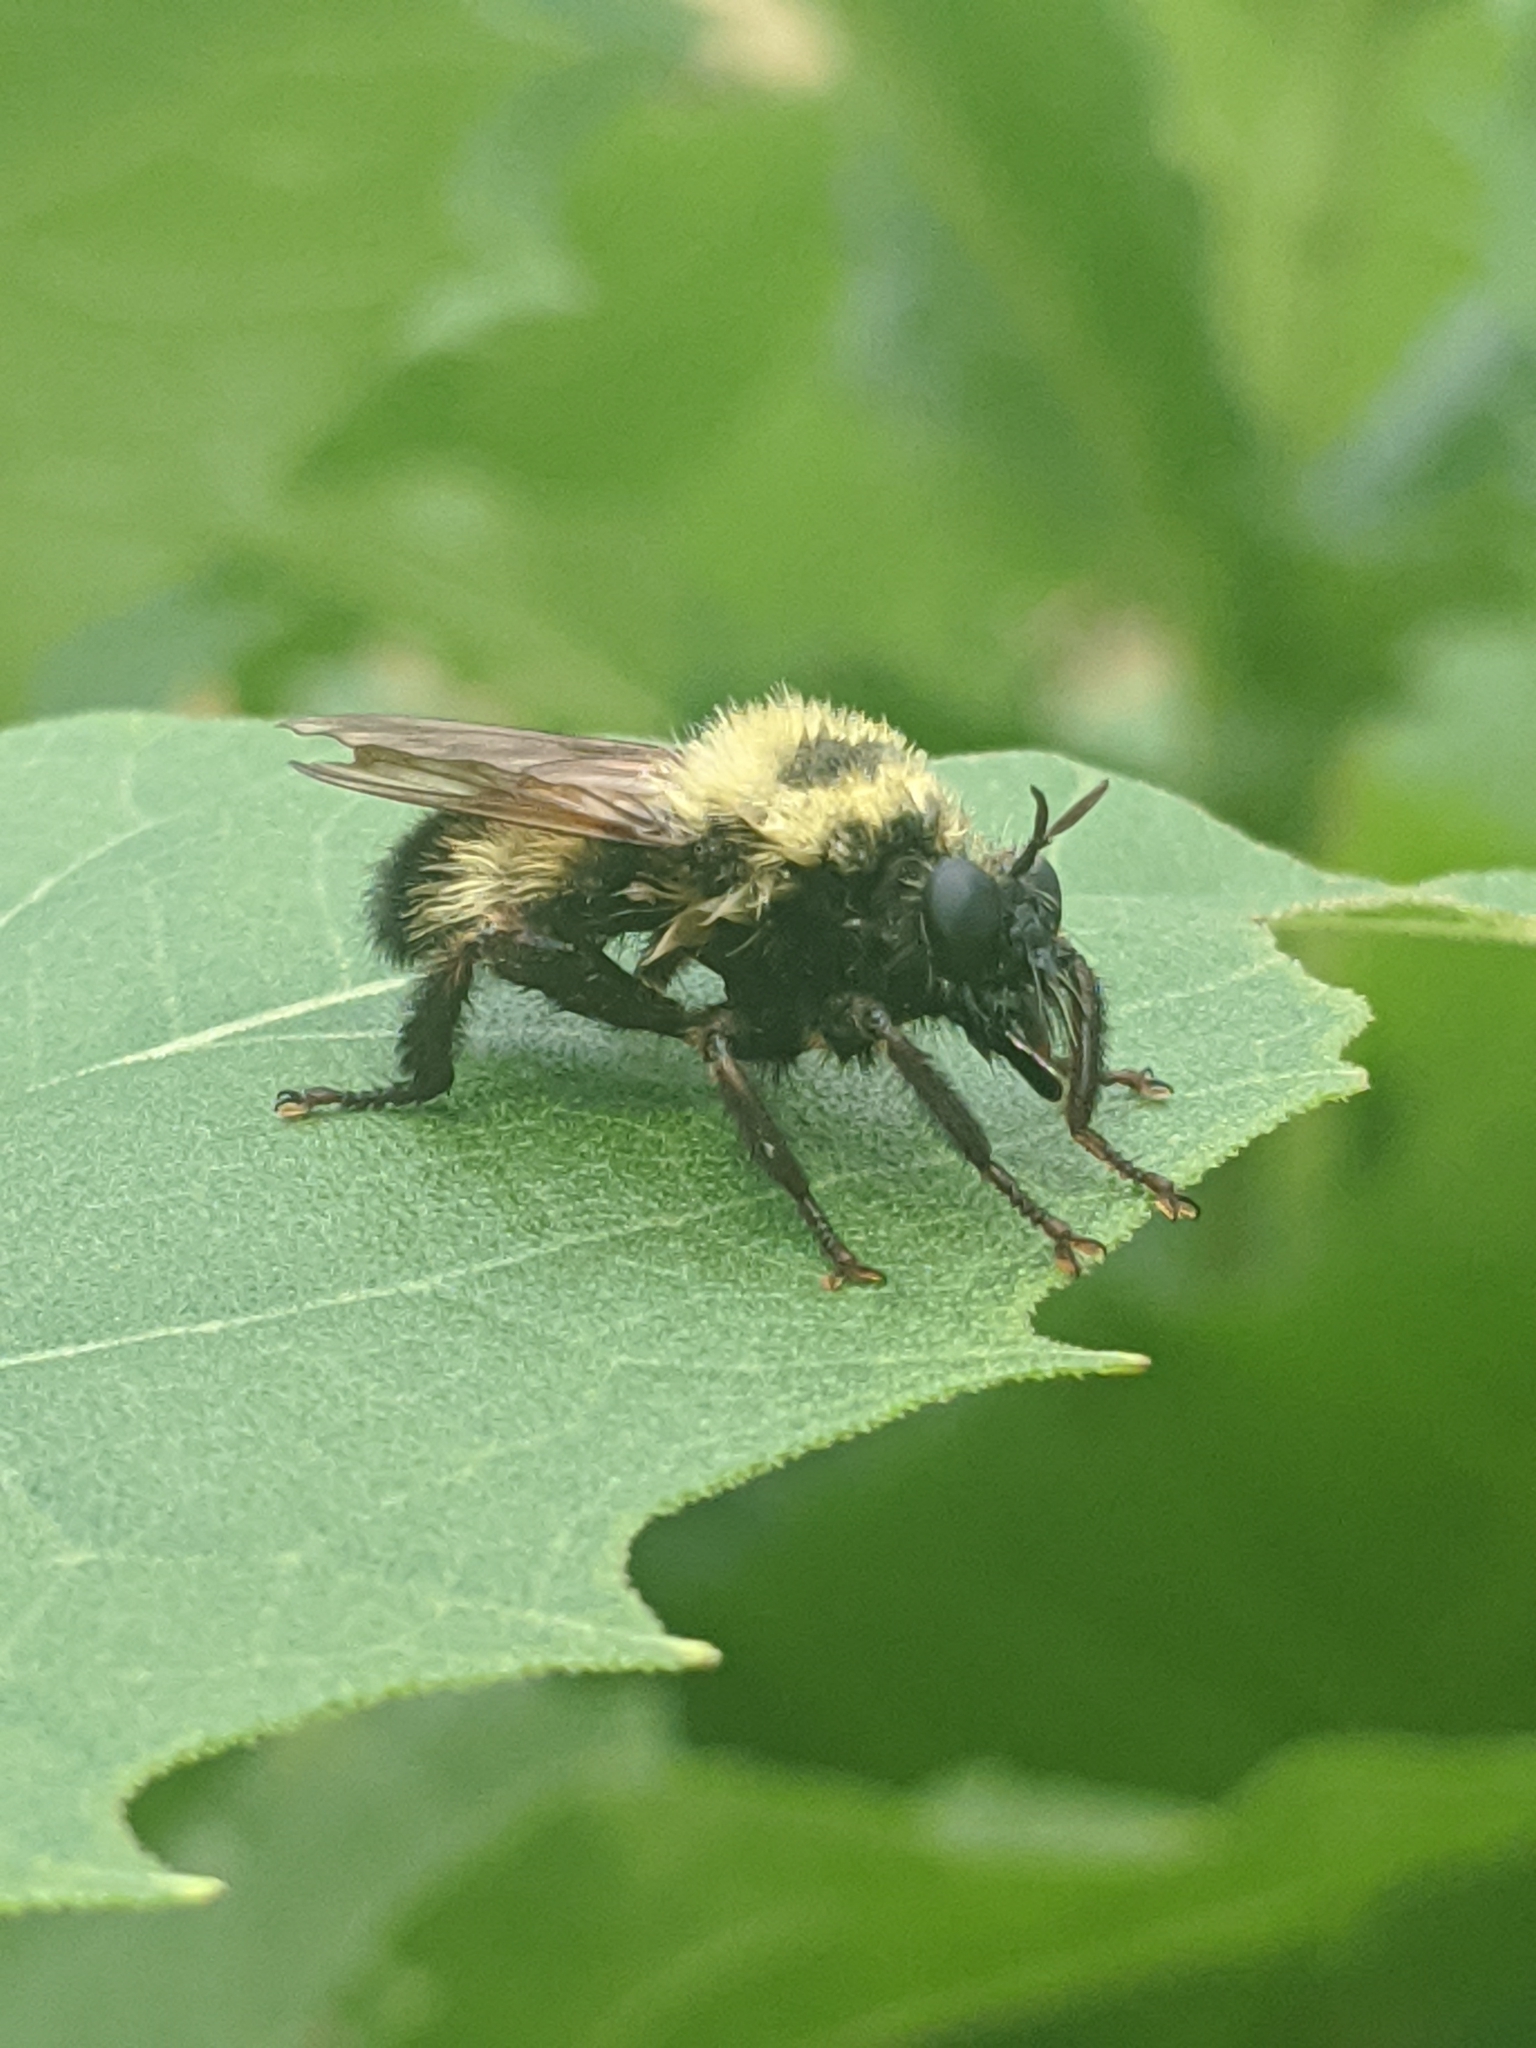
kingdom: Animalia
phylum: Arthropoda
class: Insecta
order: Diptera
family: Asilidae
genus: Laphria
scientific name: Laphria thoracica
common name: Bumble bee mimic robber fly
